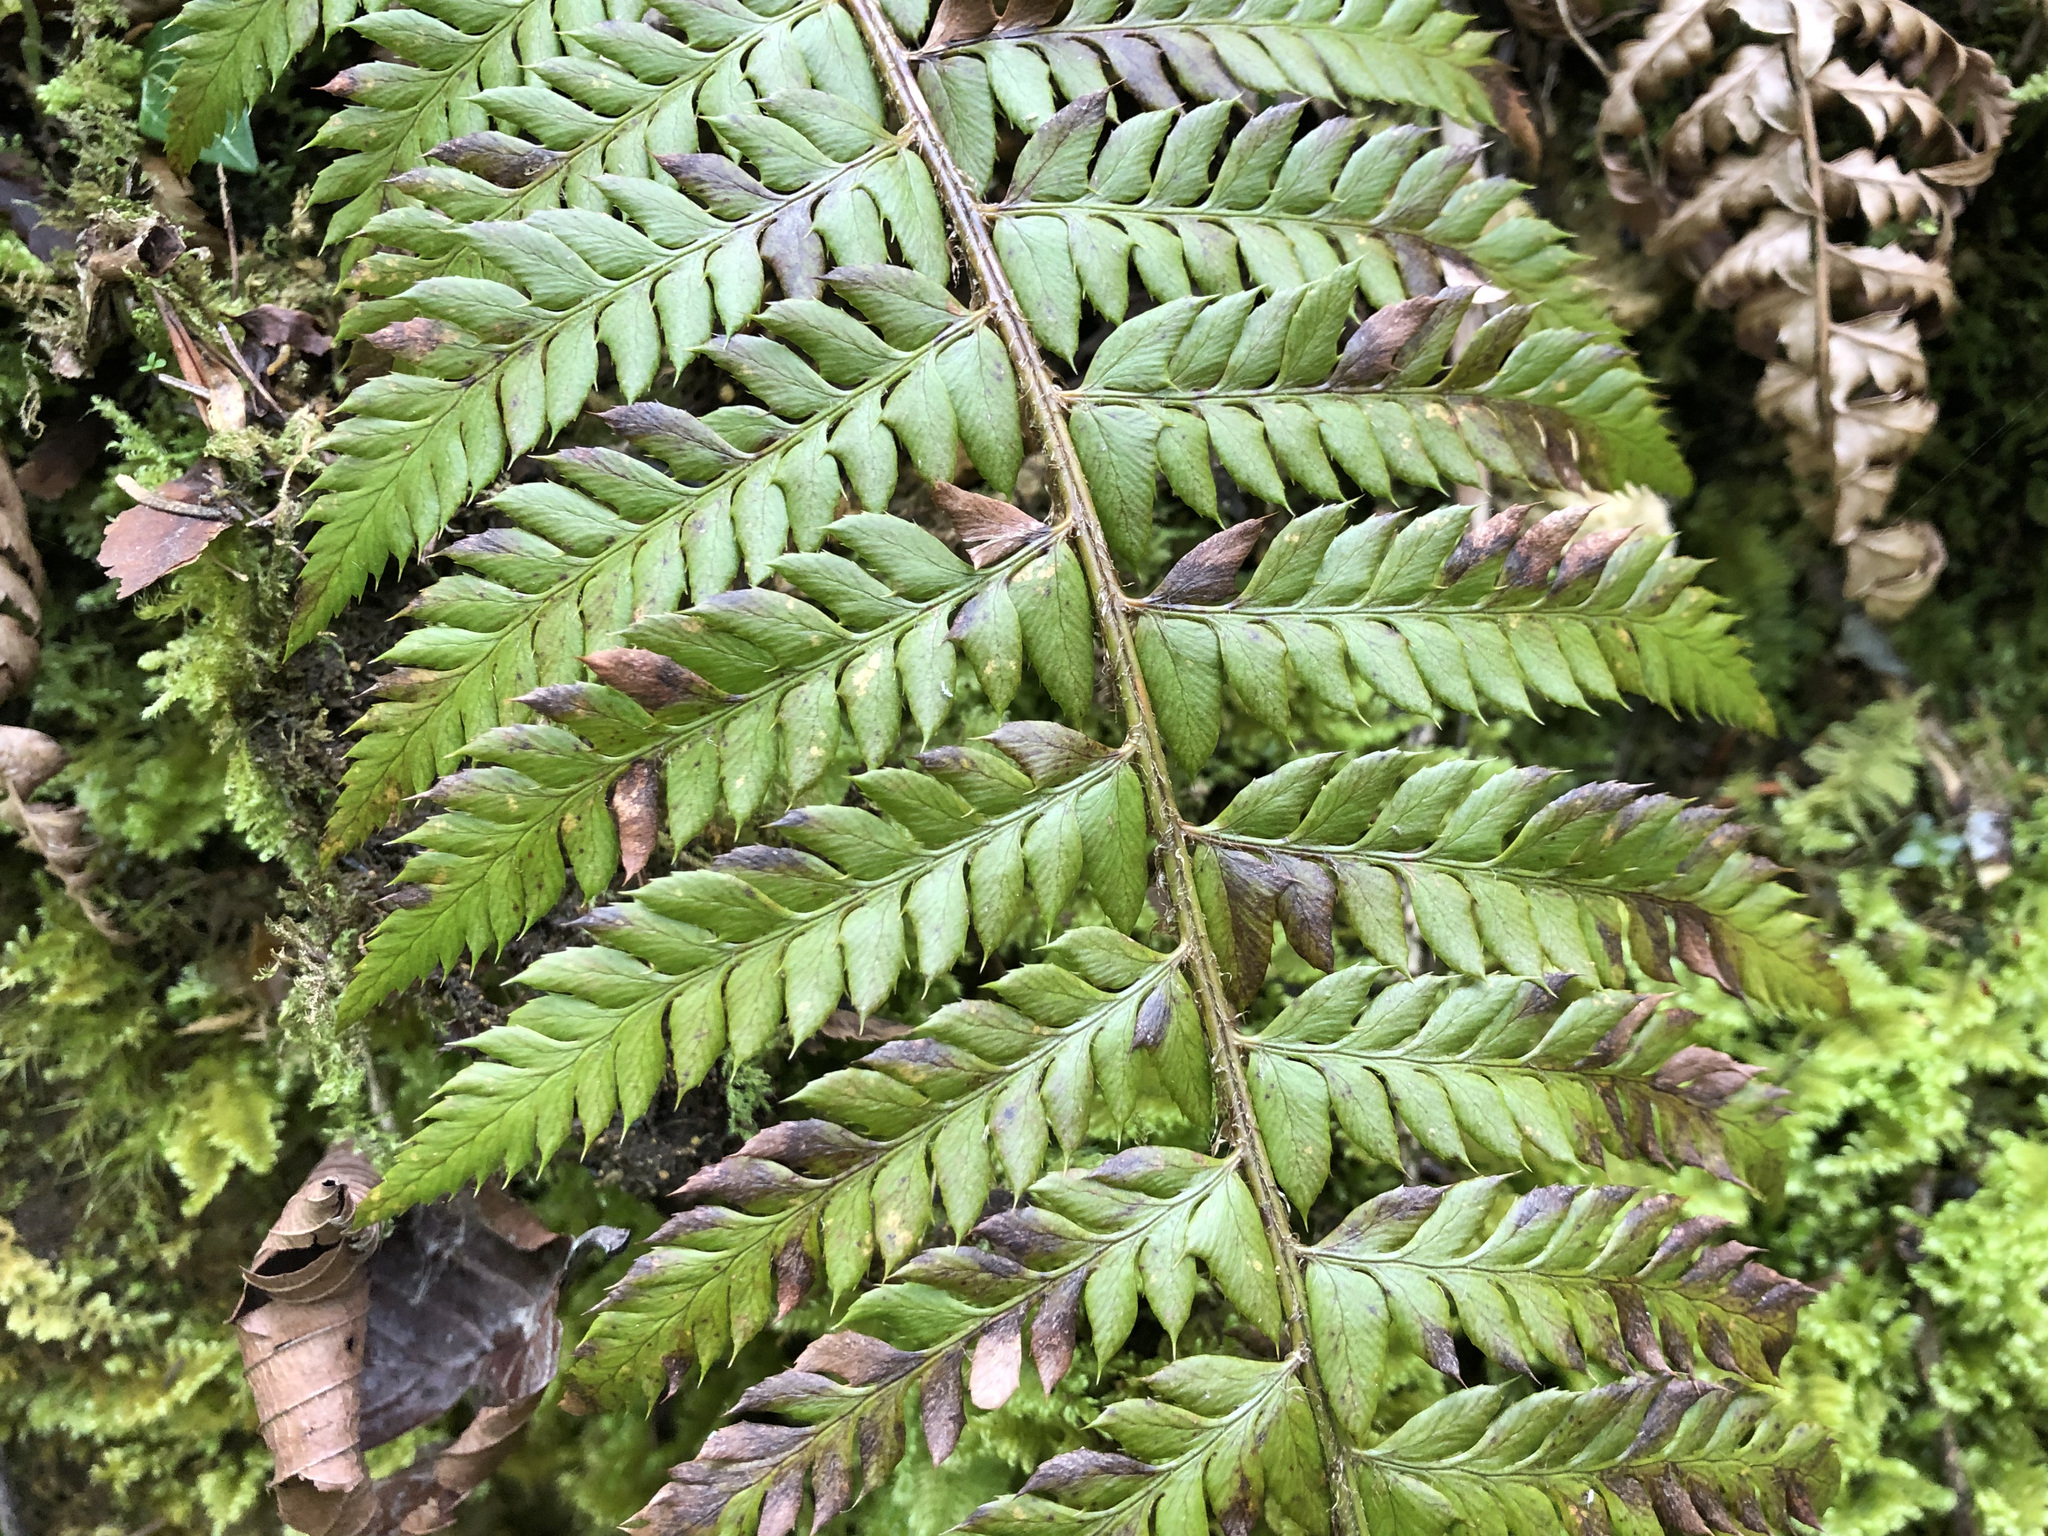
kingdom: Plantae
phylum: Tracheophyta
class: Polypodiopsida
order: Polypodiales
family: Dryopteridaceae
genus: Polystichum
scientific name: Polystichum aculeatum
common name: Hard shield-fern
